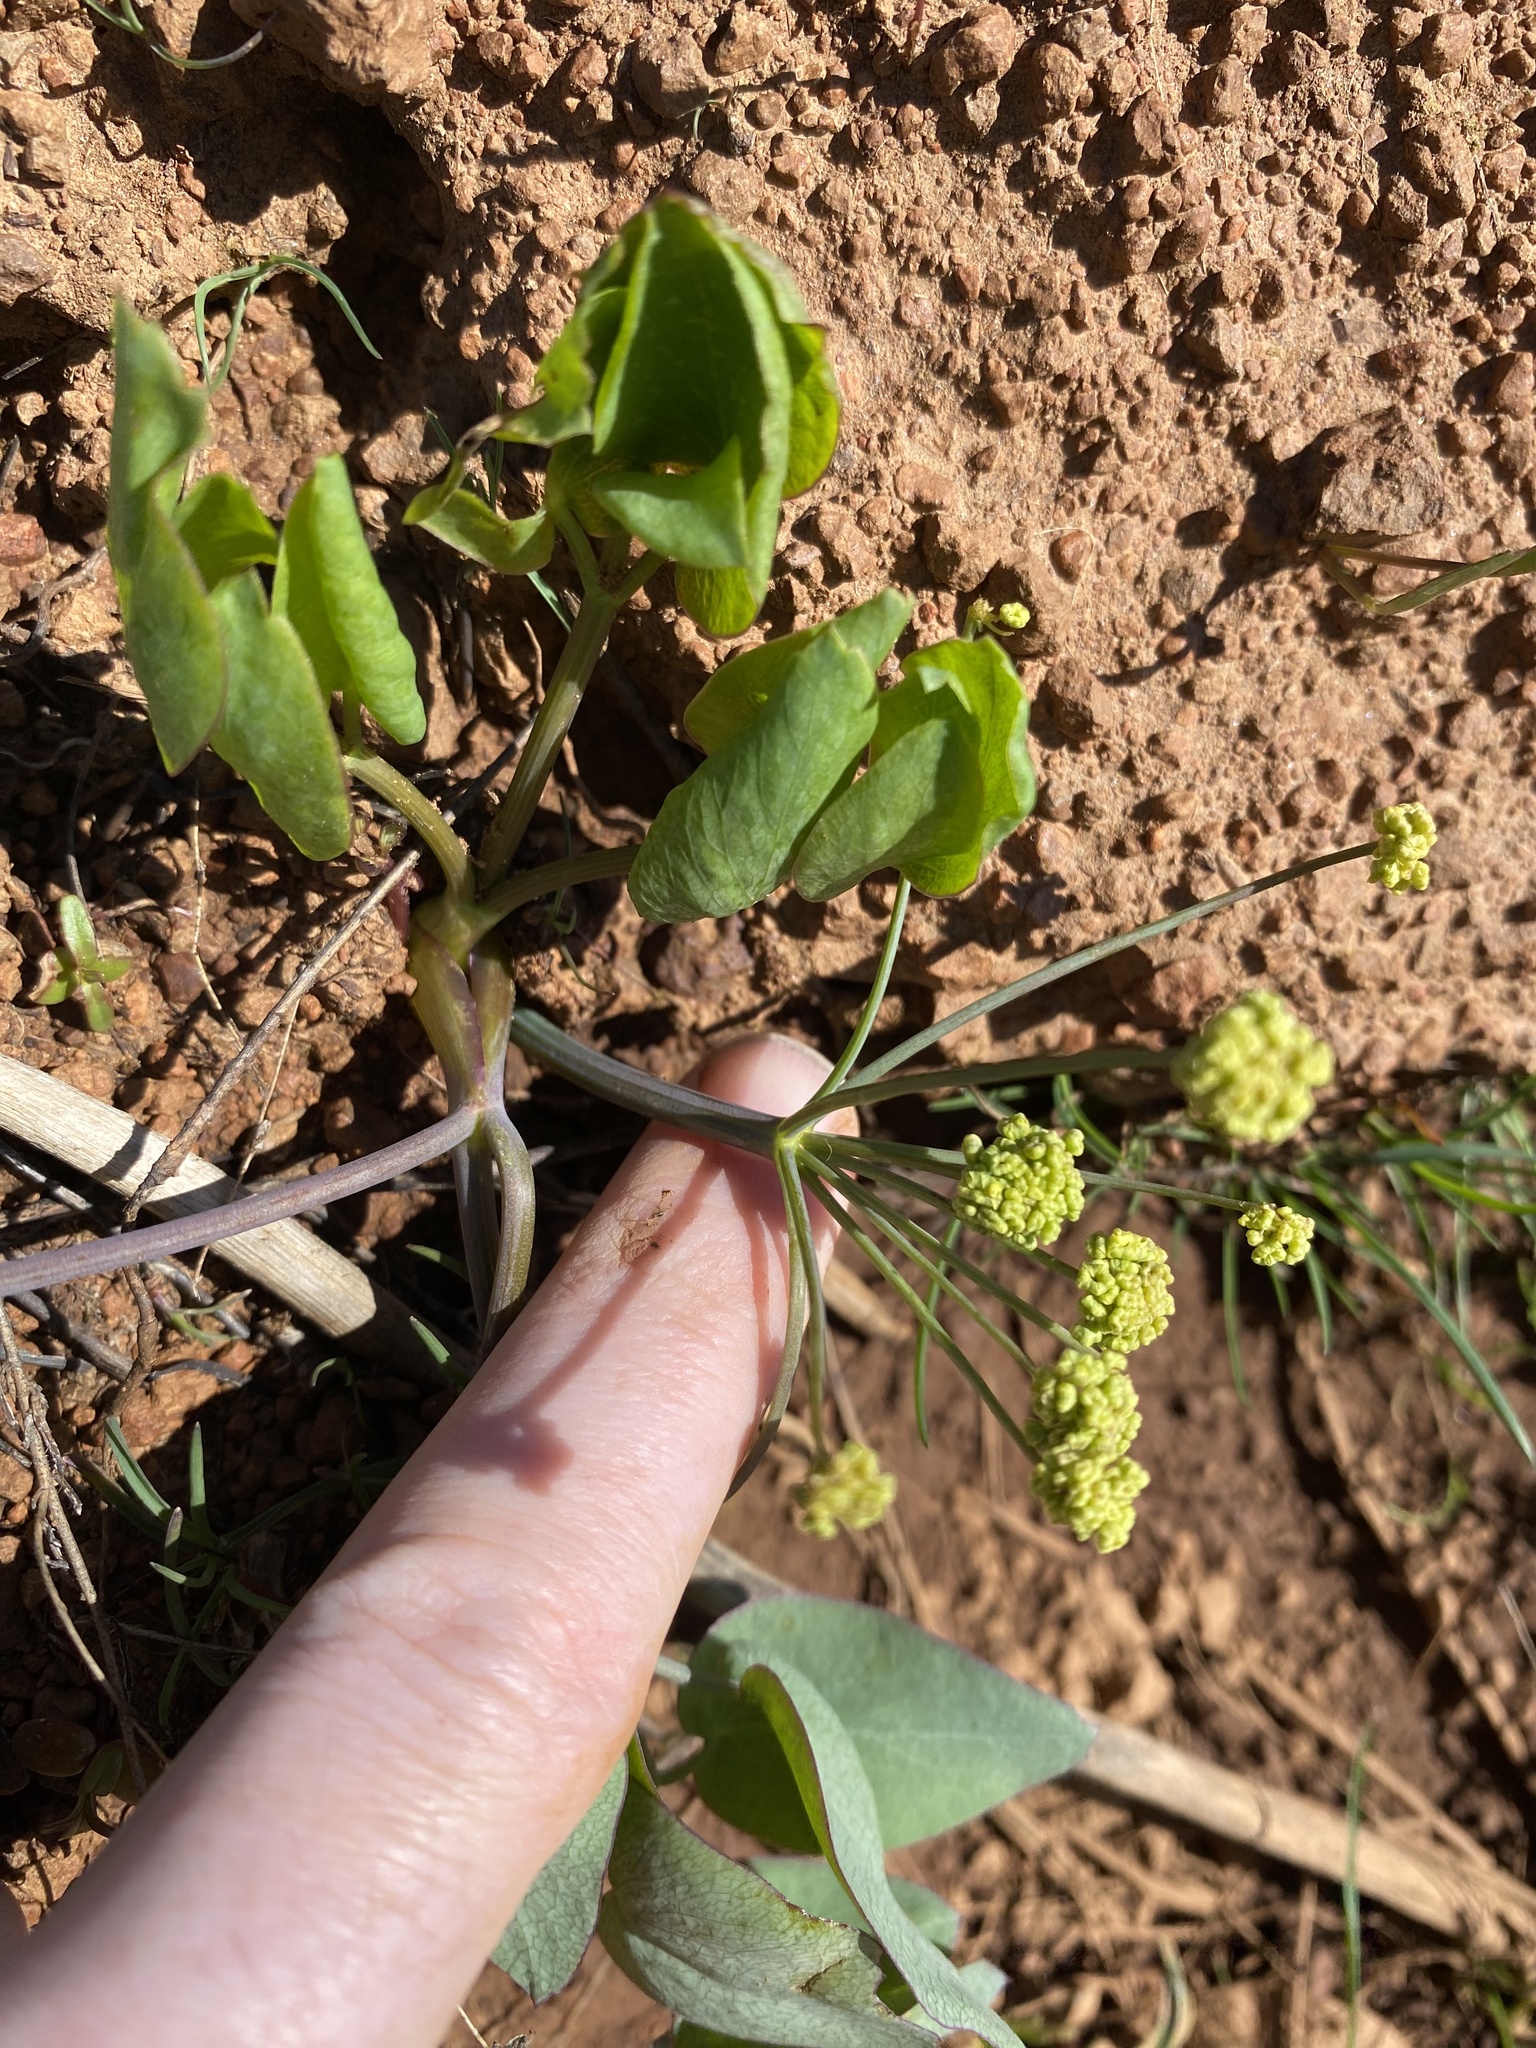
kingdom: Plantae
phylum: Tracheophyta
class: Magnoliopsida
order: Apiales
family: Apiaceae
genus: Lomatium
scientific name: Lomatium nudicaule
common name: Pestle lomatium
